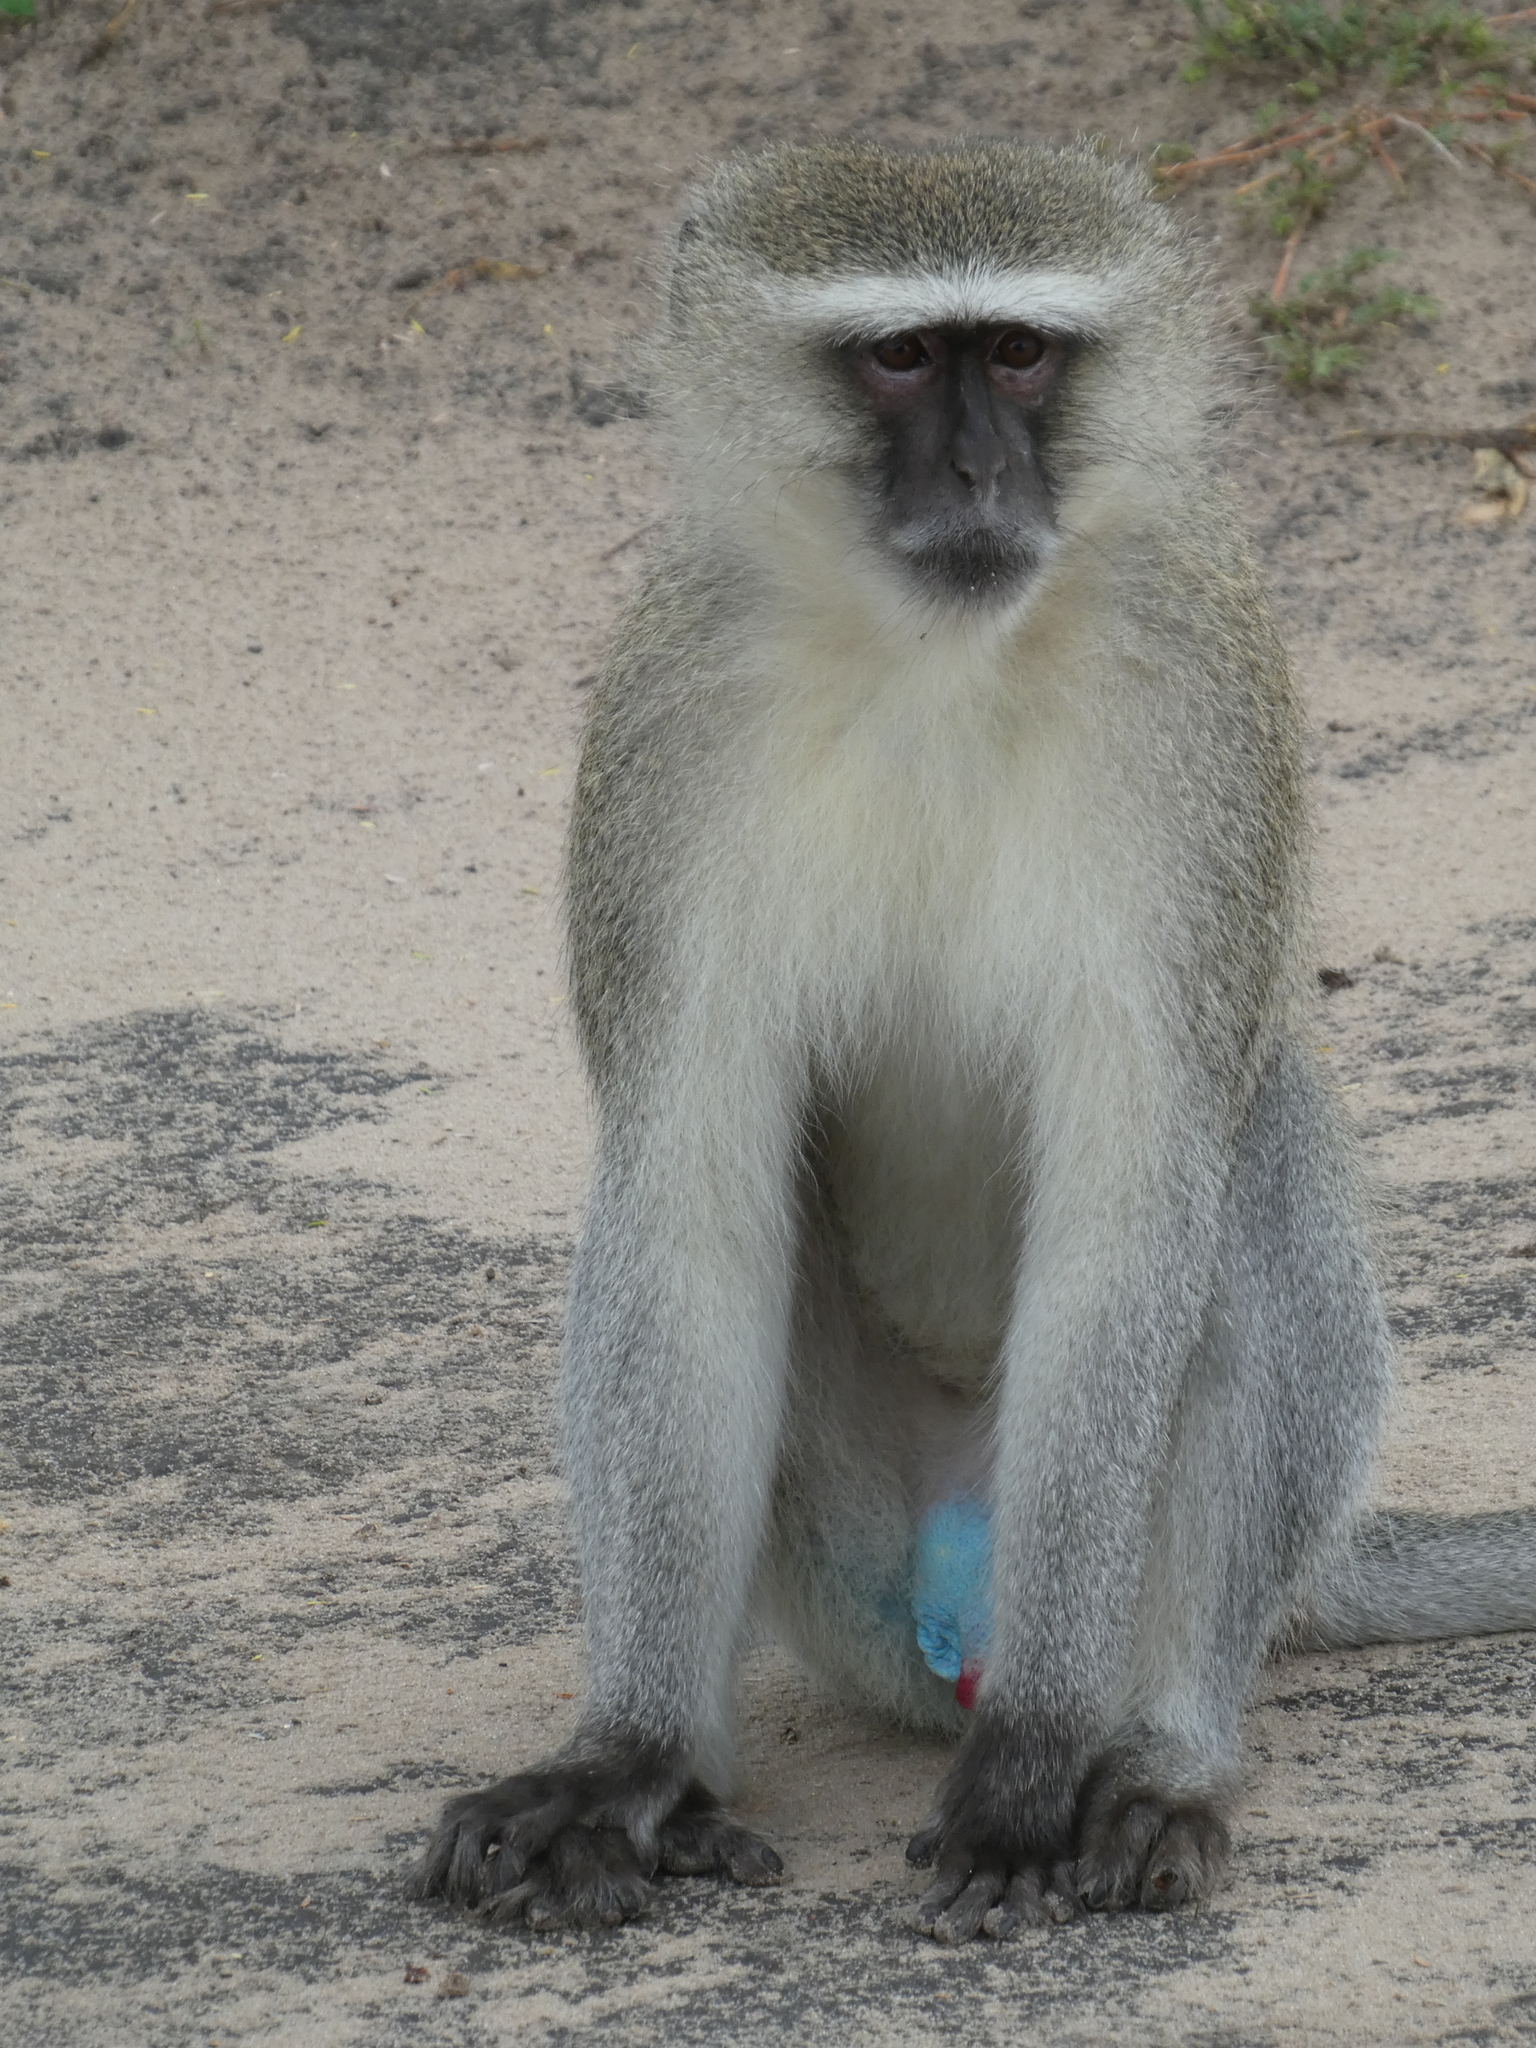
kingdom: Animalia
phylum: Chordata
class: Mammalia
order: Primates
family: Cercopithecidae
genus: Chlorocebus
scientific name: Chlorocebus pygerythrus
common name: Vervet monkey
